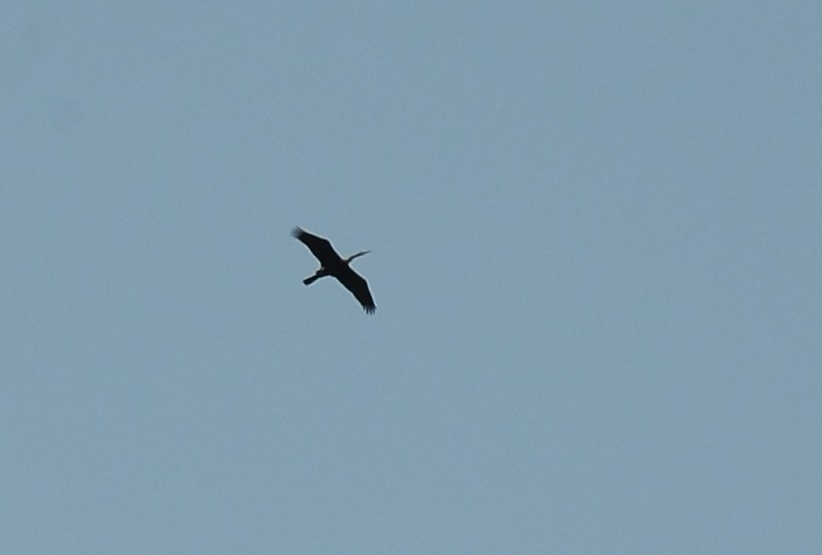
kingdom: Animalia
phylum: Chordata
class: Aves
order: Suliformes
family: Anhingidae
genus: Anhinga
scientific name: Anhinga melanogaster
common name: Oriental darter
